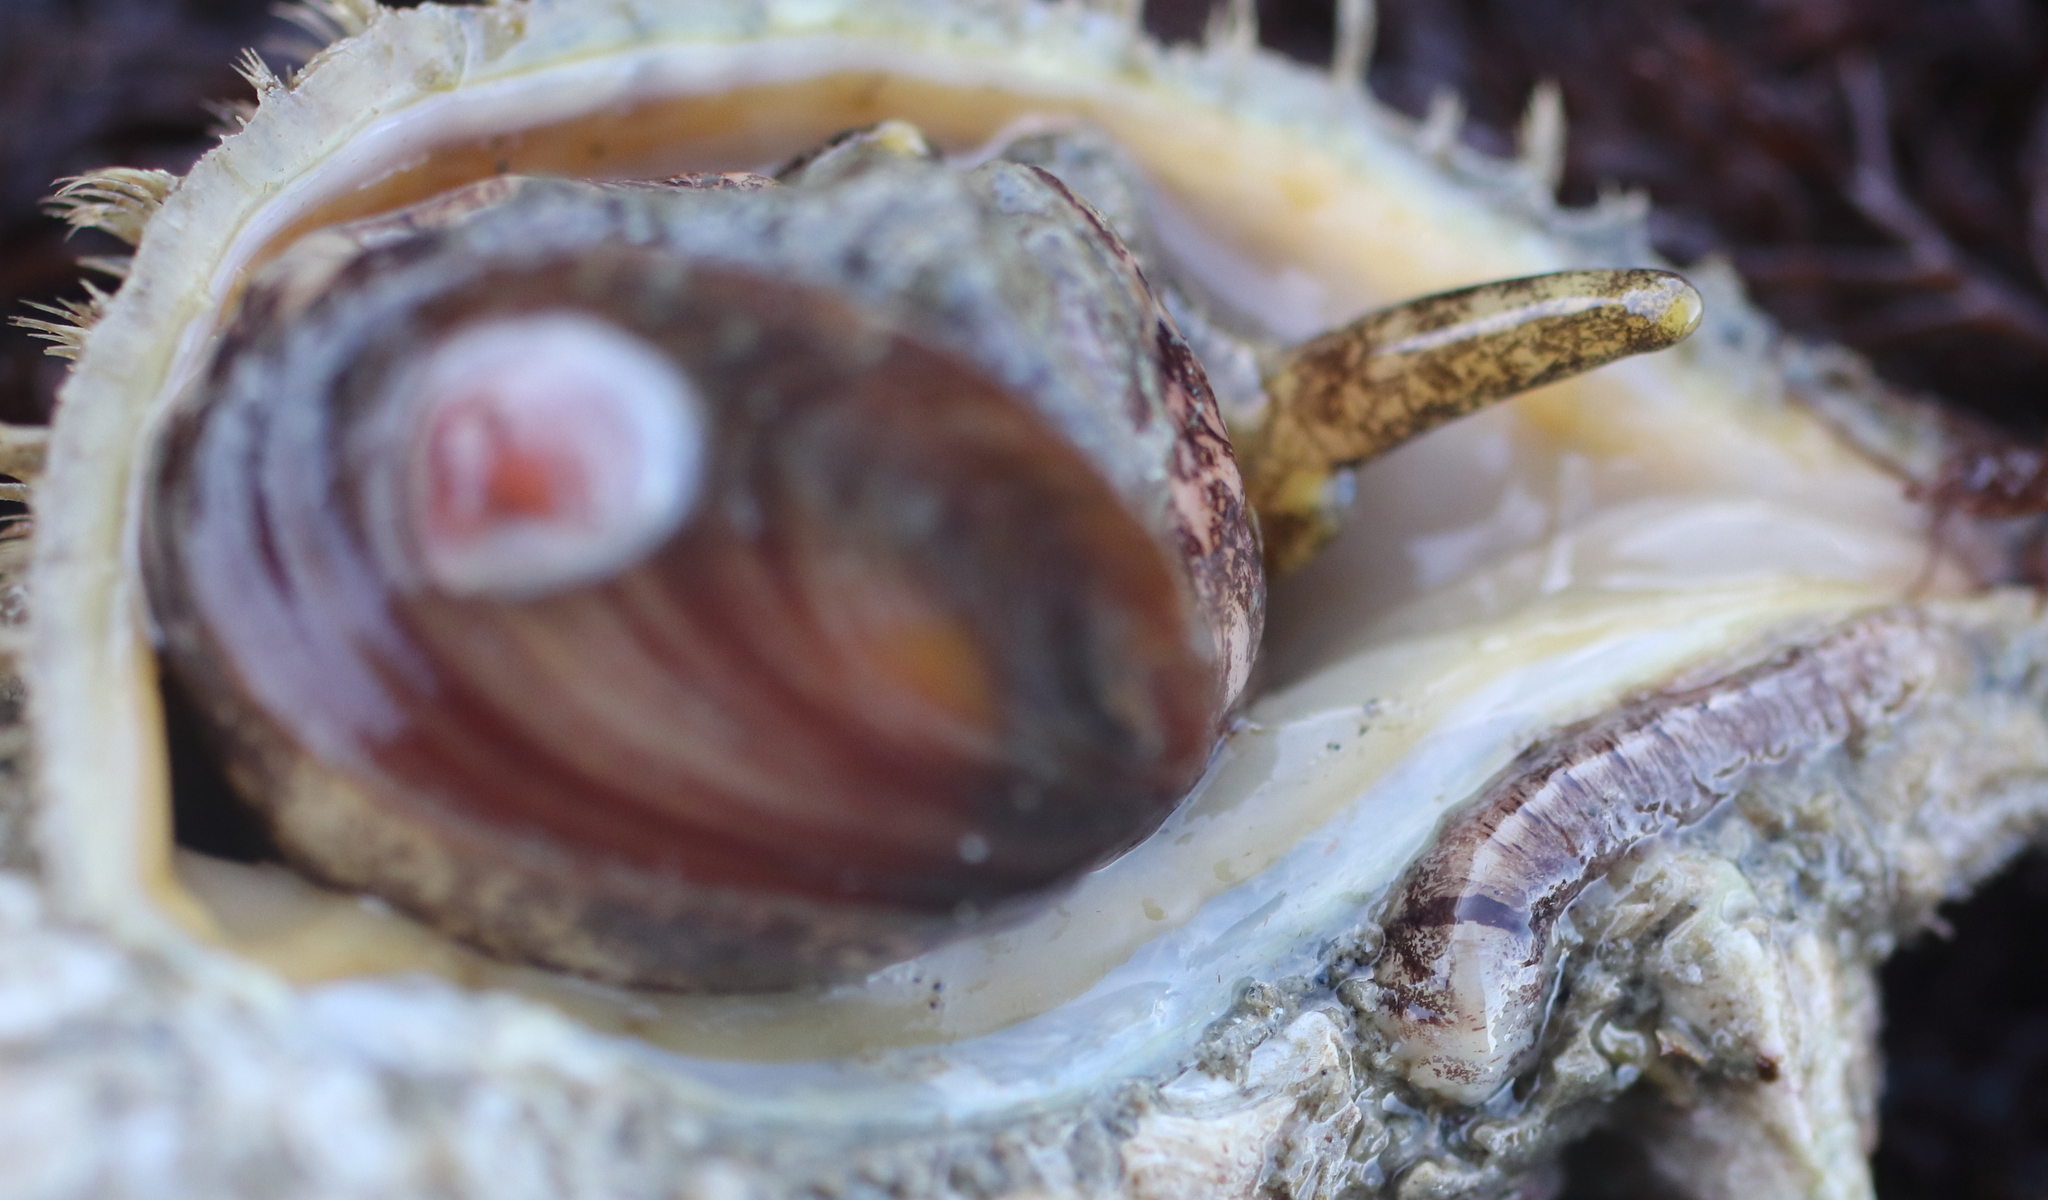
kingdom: Animalia
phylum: Annelida
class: Polychaeta
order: Phyllodocida
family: Polynoidae
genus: Arctonoe
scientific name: Arctonoe vittata
